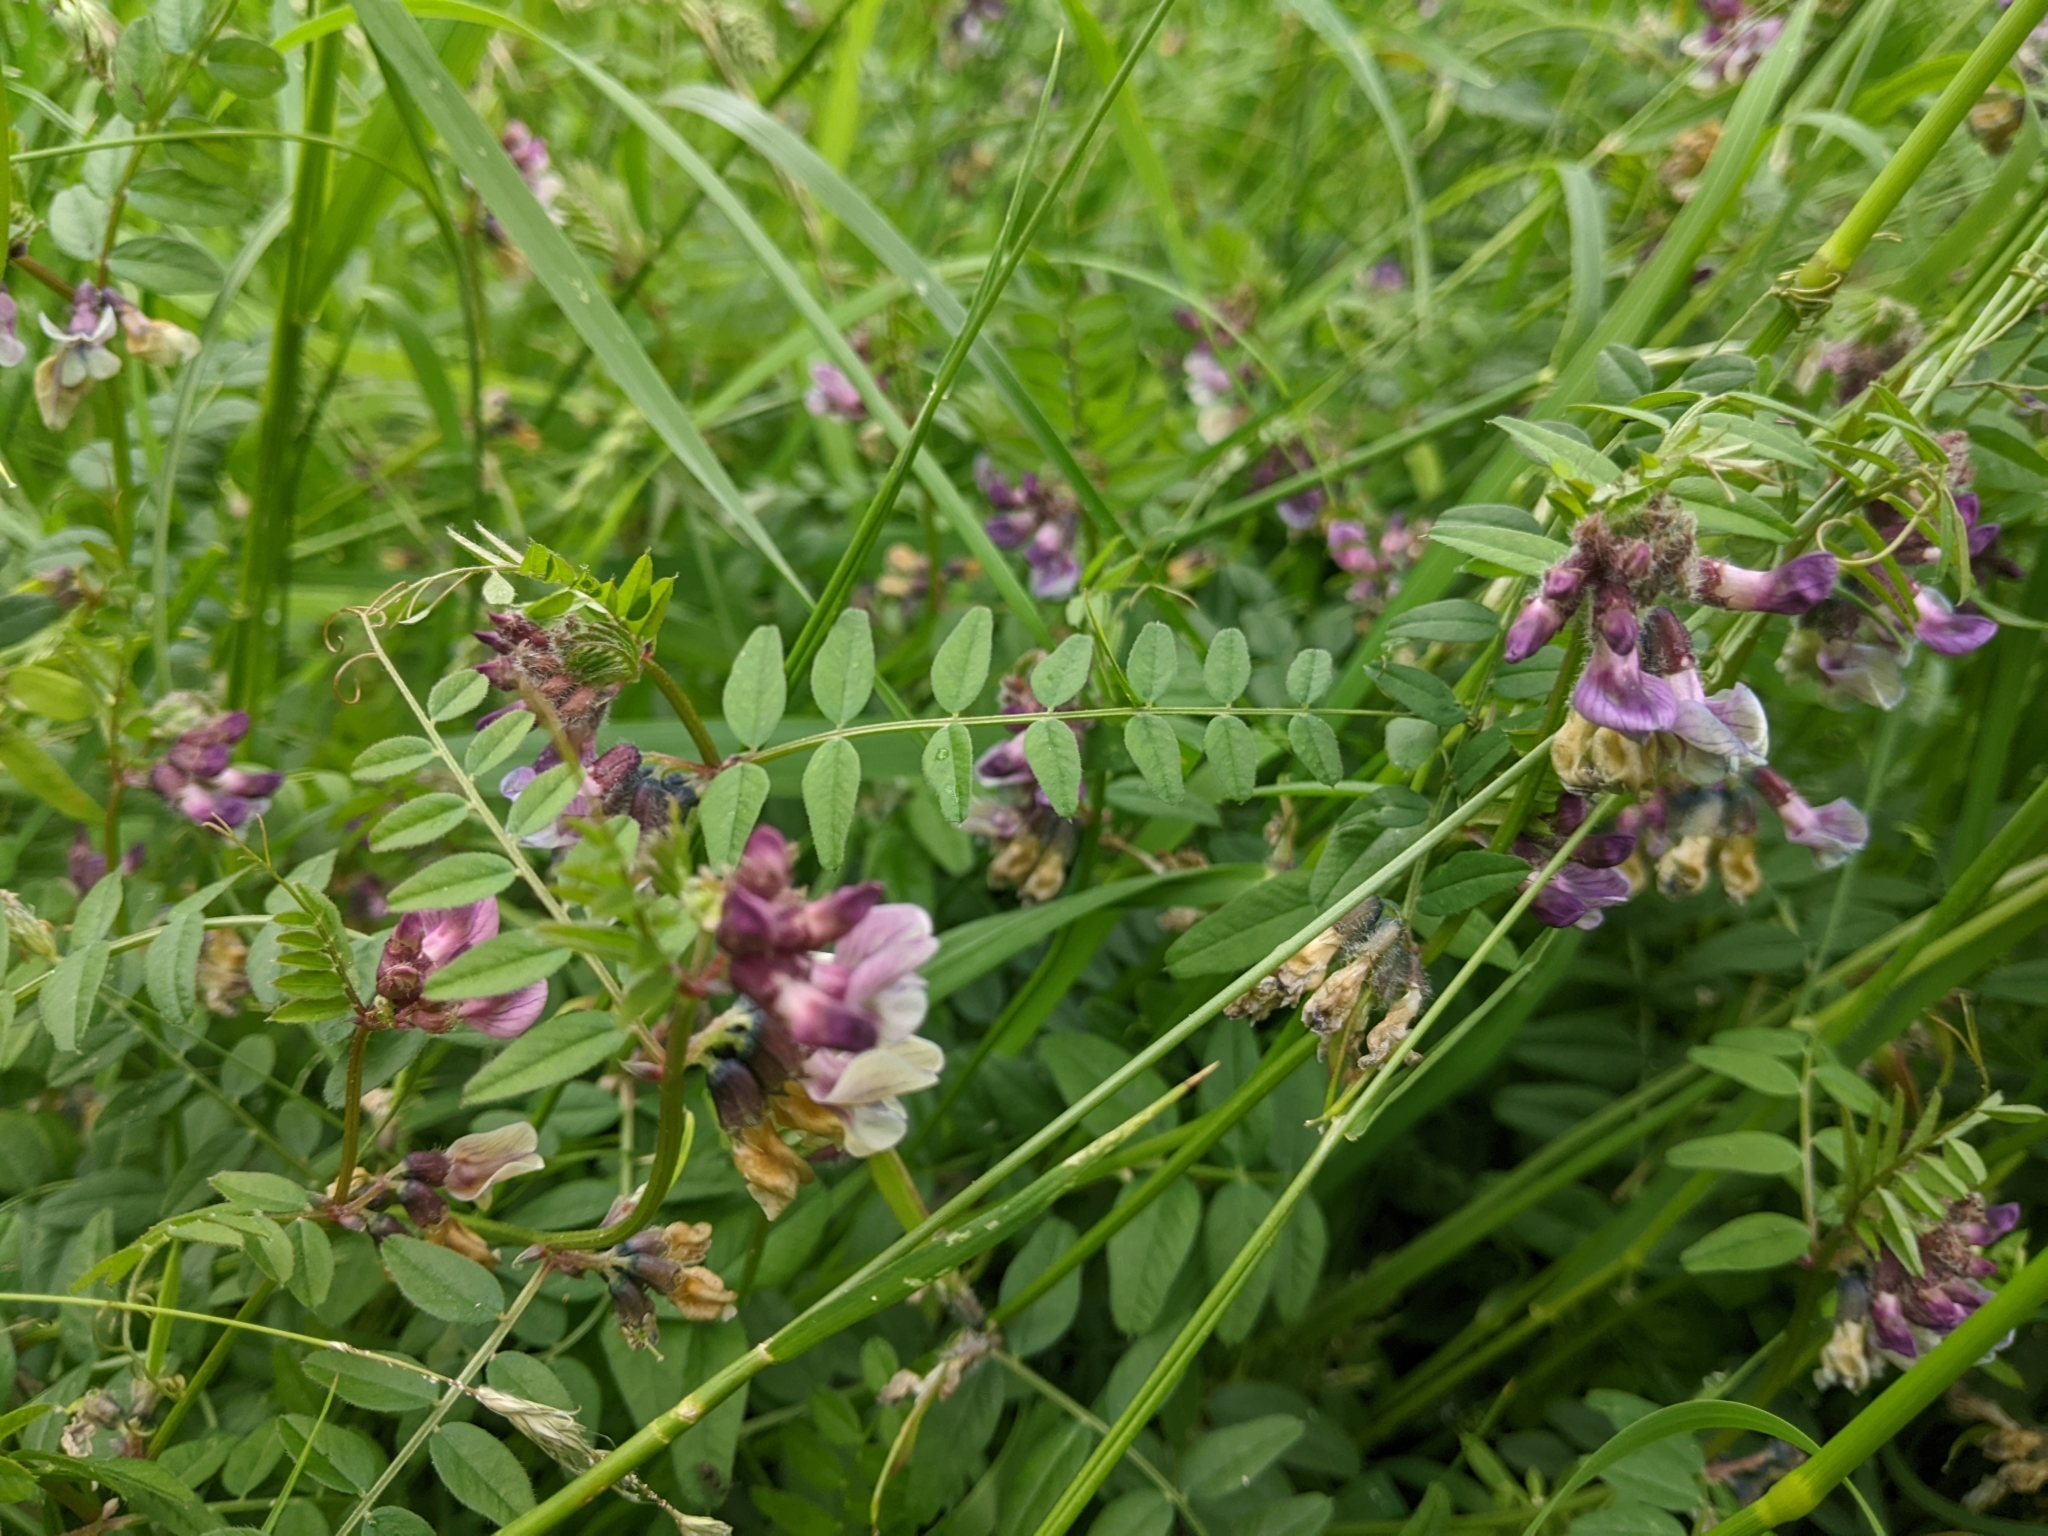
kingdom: Plantae
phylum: Tracheophyta
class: Magnoliopsida
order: Fabales
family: Fabaceae
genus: Vicia
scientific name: Vicia sepium
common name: Bush vetch
